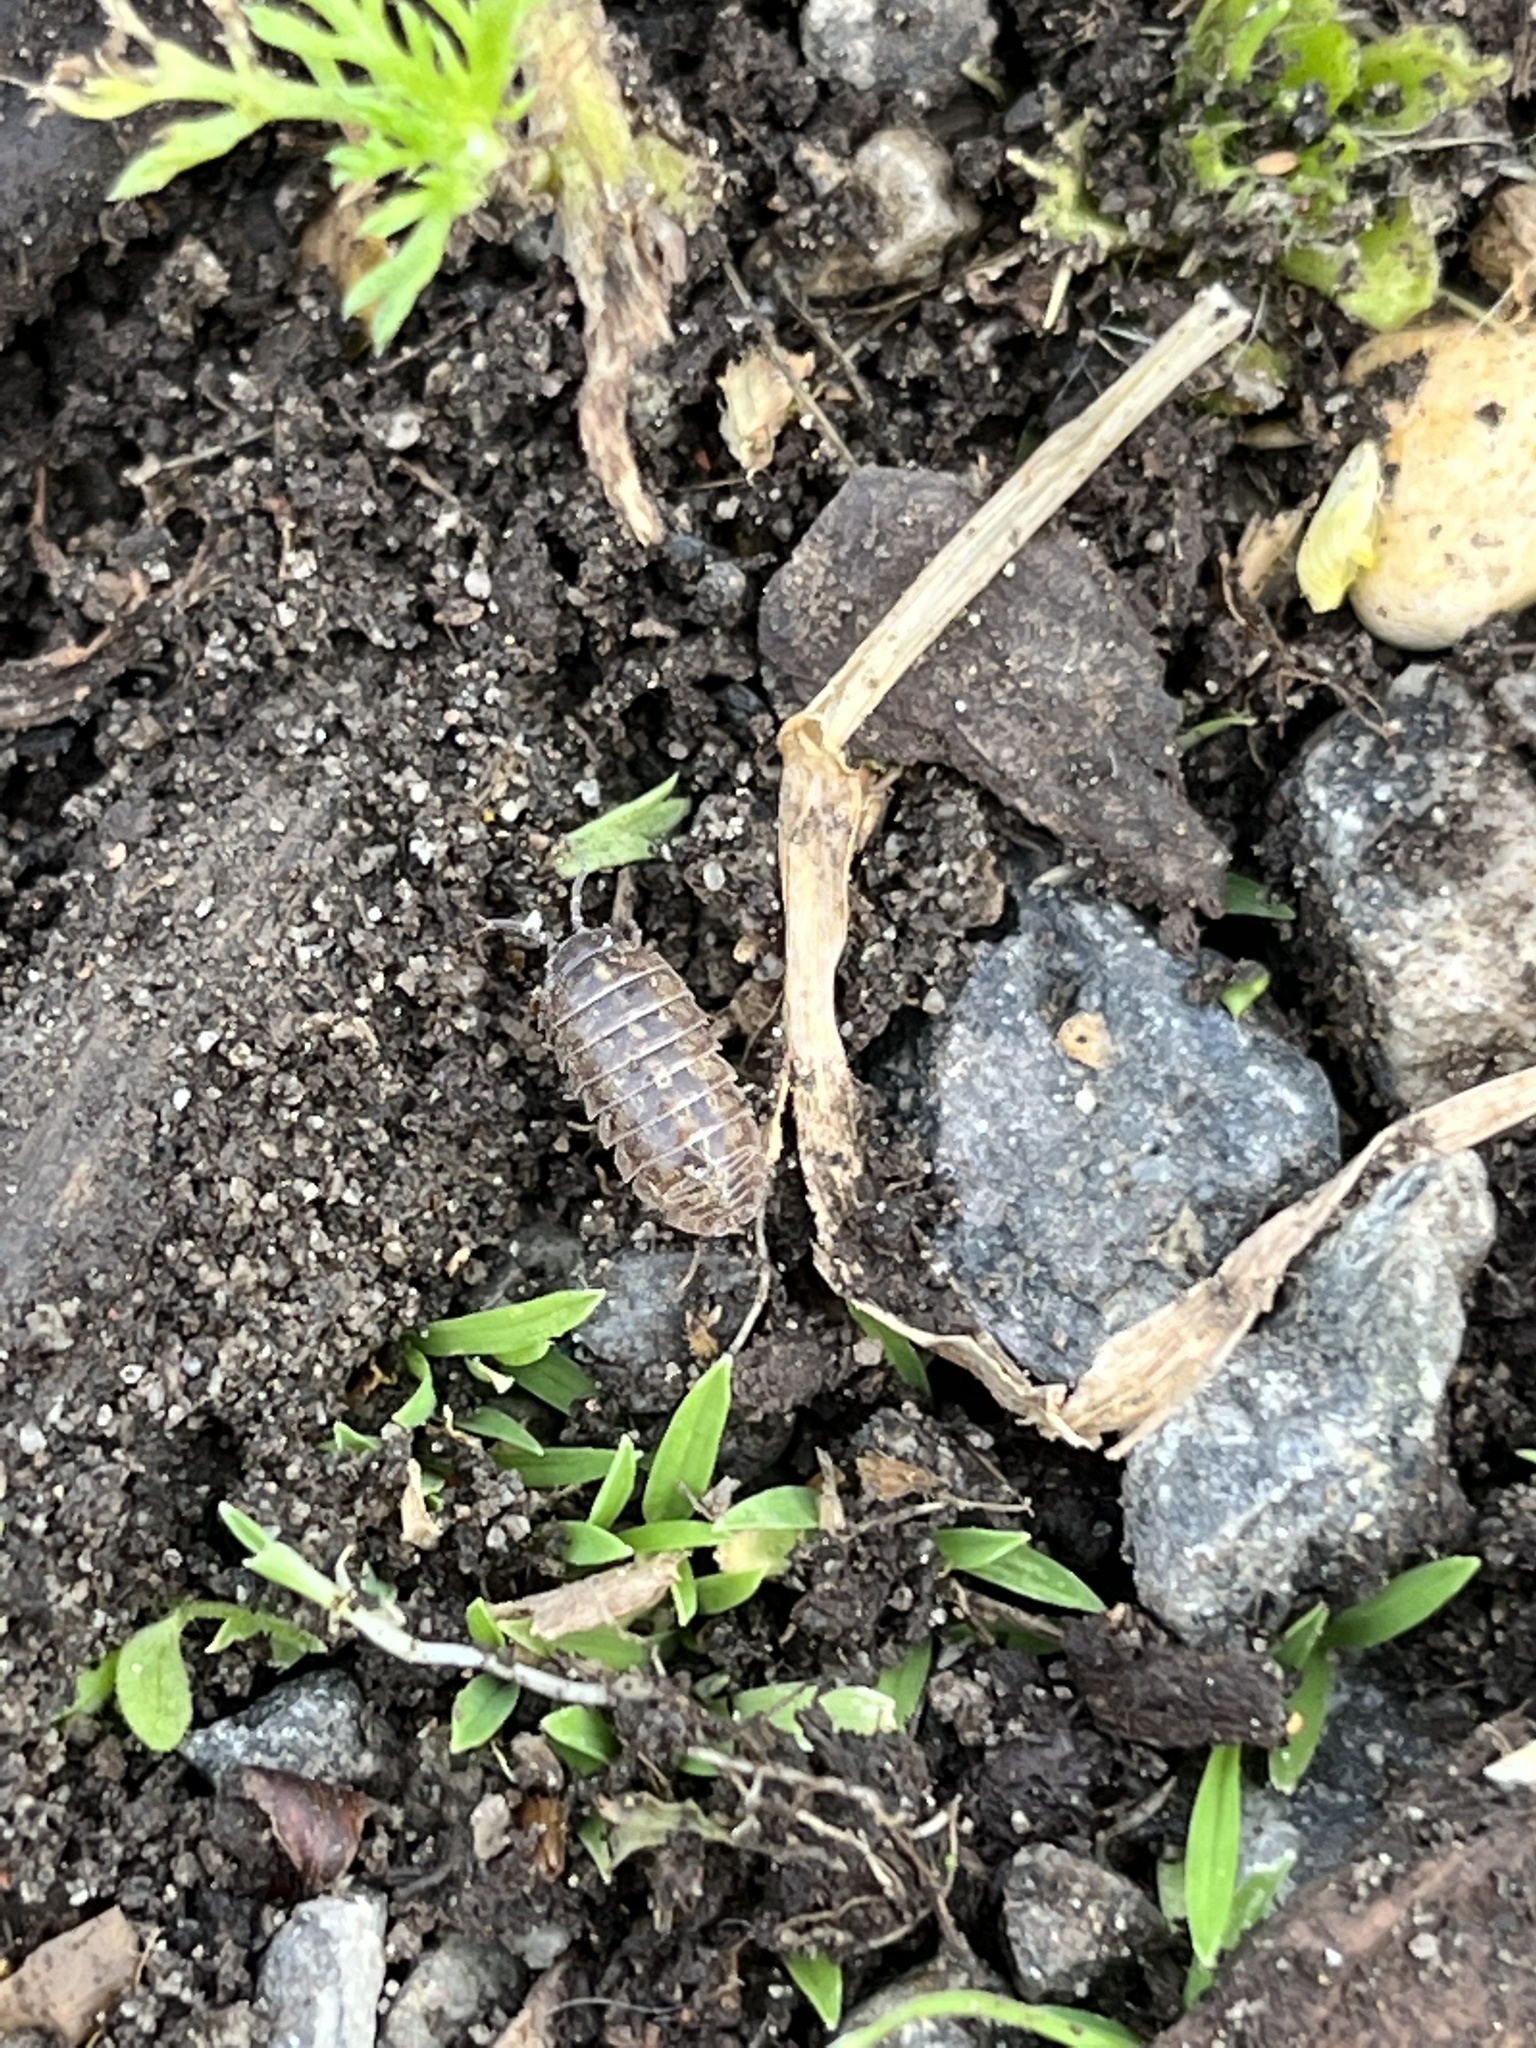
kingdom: Animalia
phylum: Arthropoda
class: Malacostraca
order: Isopoda
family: Armadillidiidae
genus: Armadillidium
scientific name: Armadillidium vulgare
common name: Common pill woodlouse
